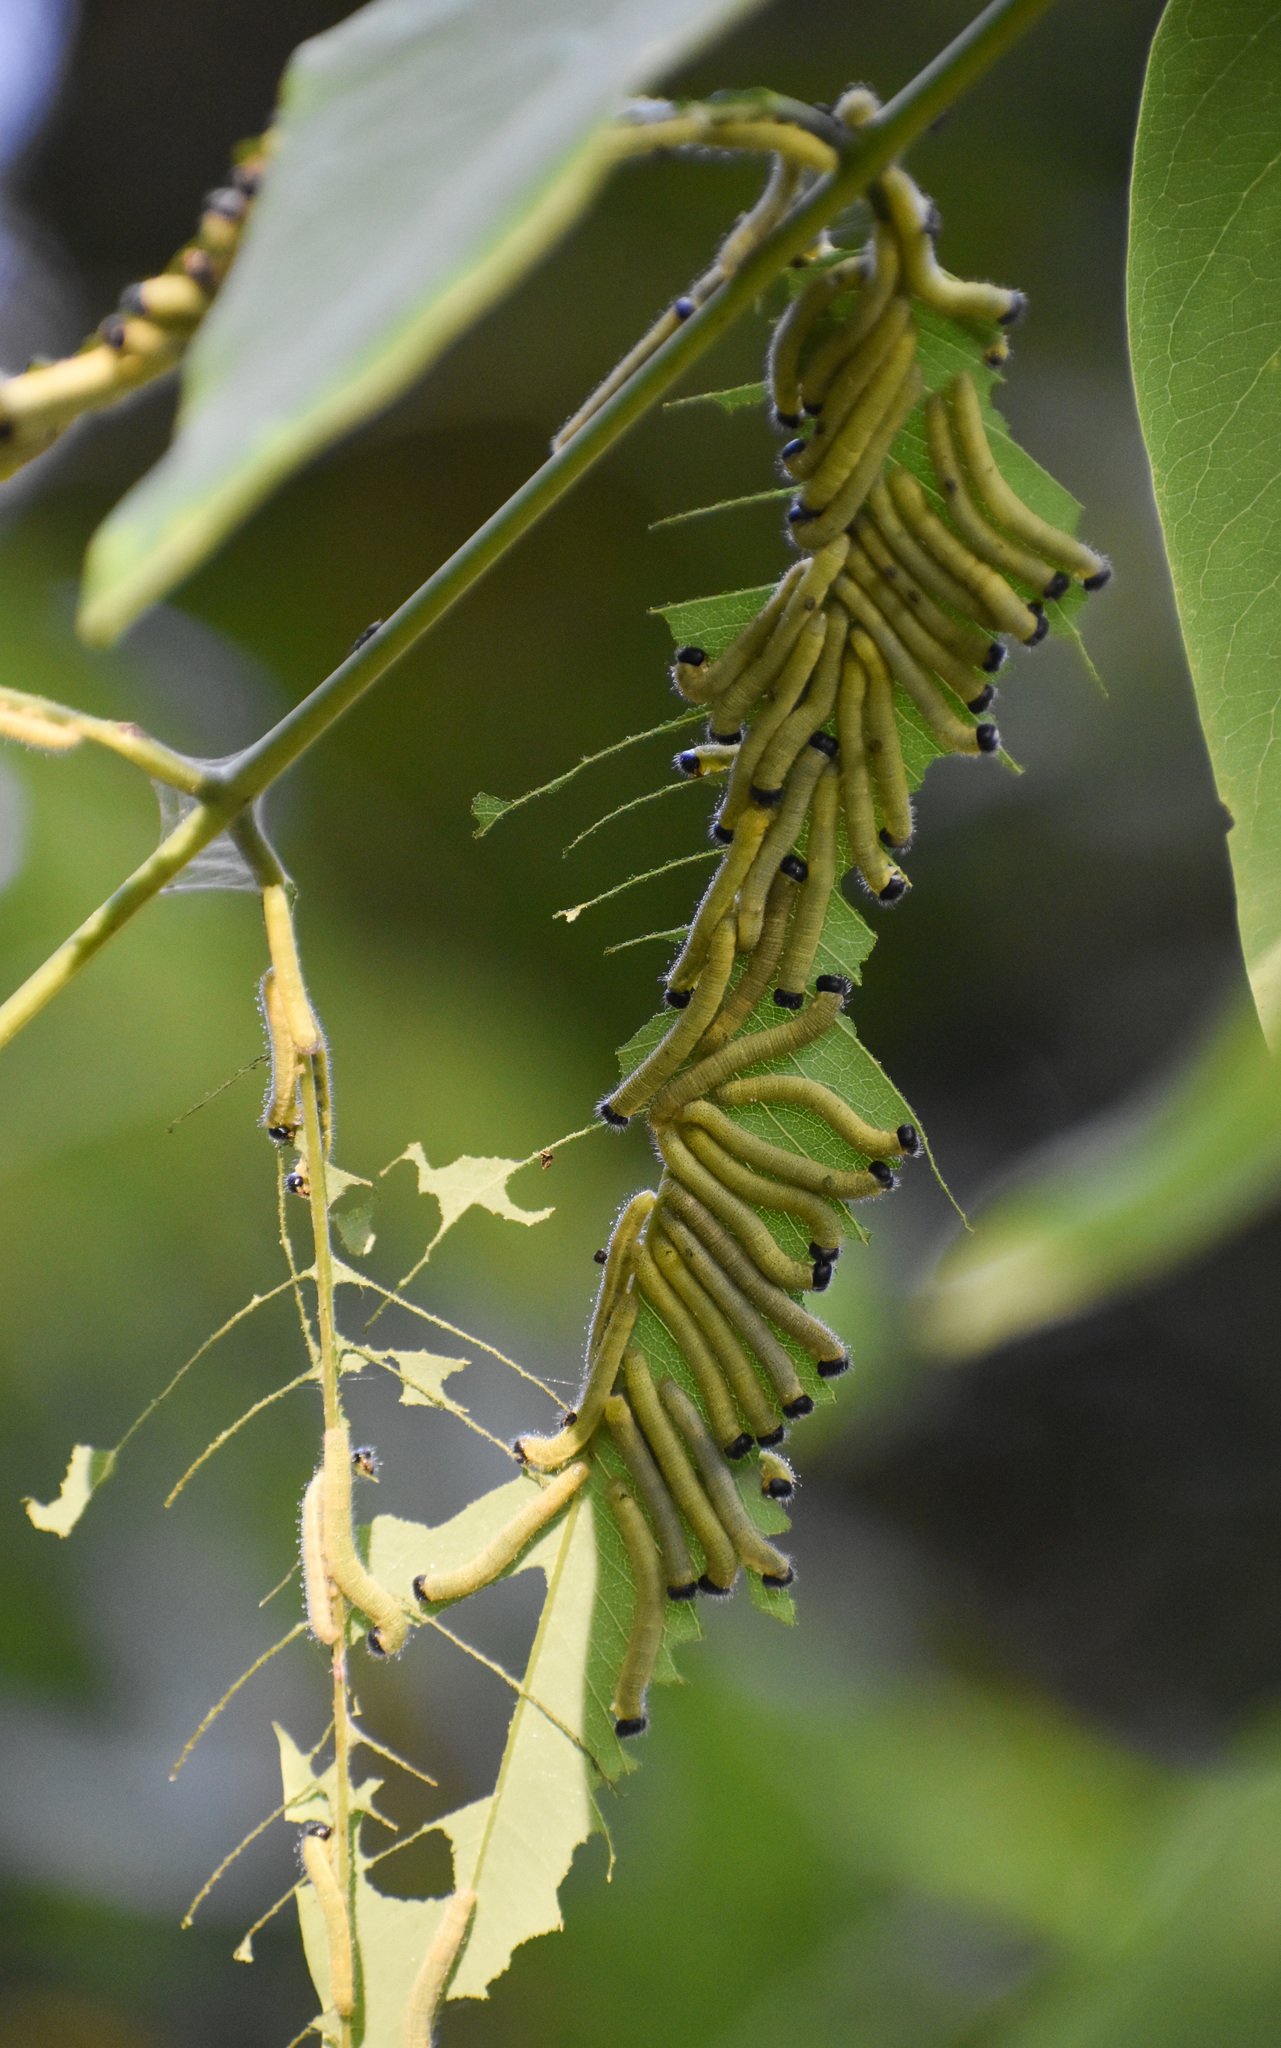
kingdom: Animalia
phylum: Arthropoda
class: Insecta
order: Lepidoptera
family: Pieridae
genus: Eurema
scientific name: Eurema blanda
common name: Three-spot grass yellow
